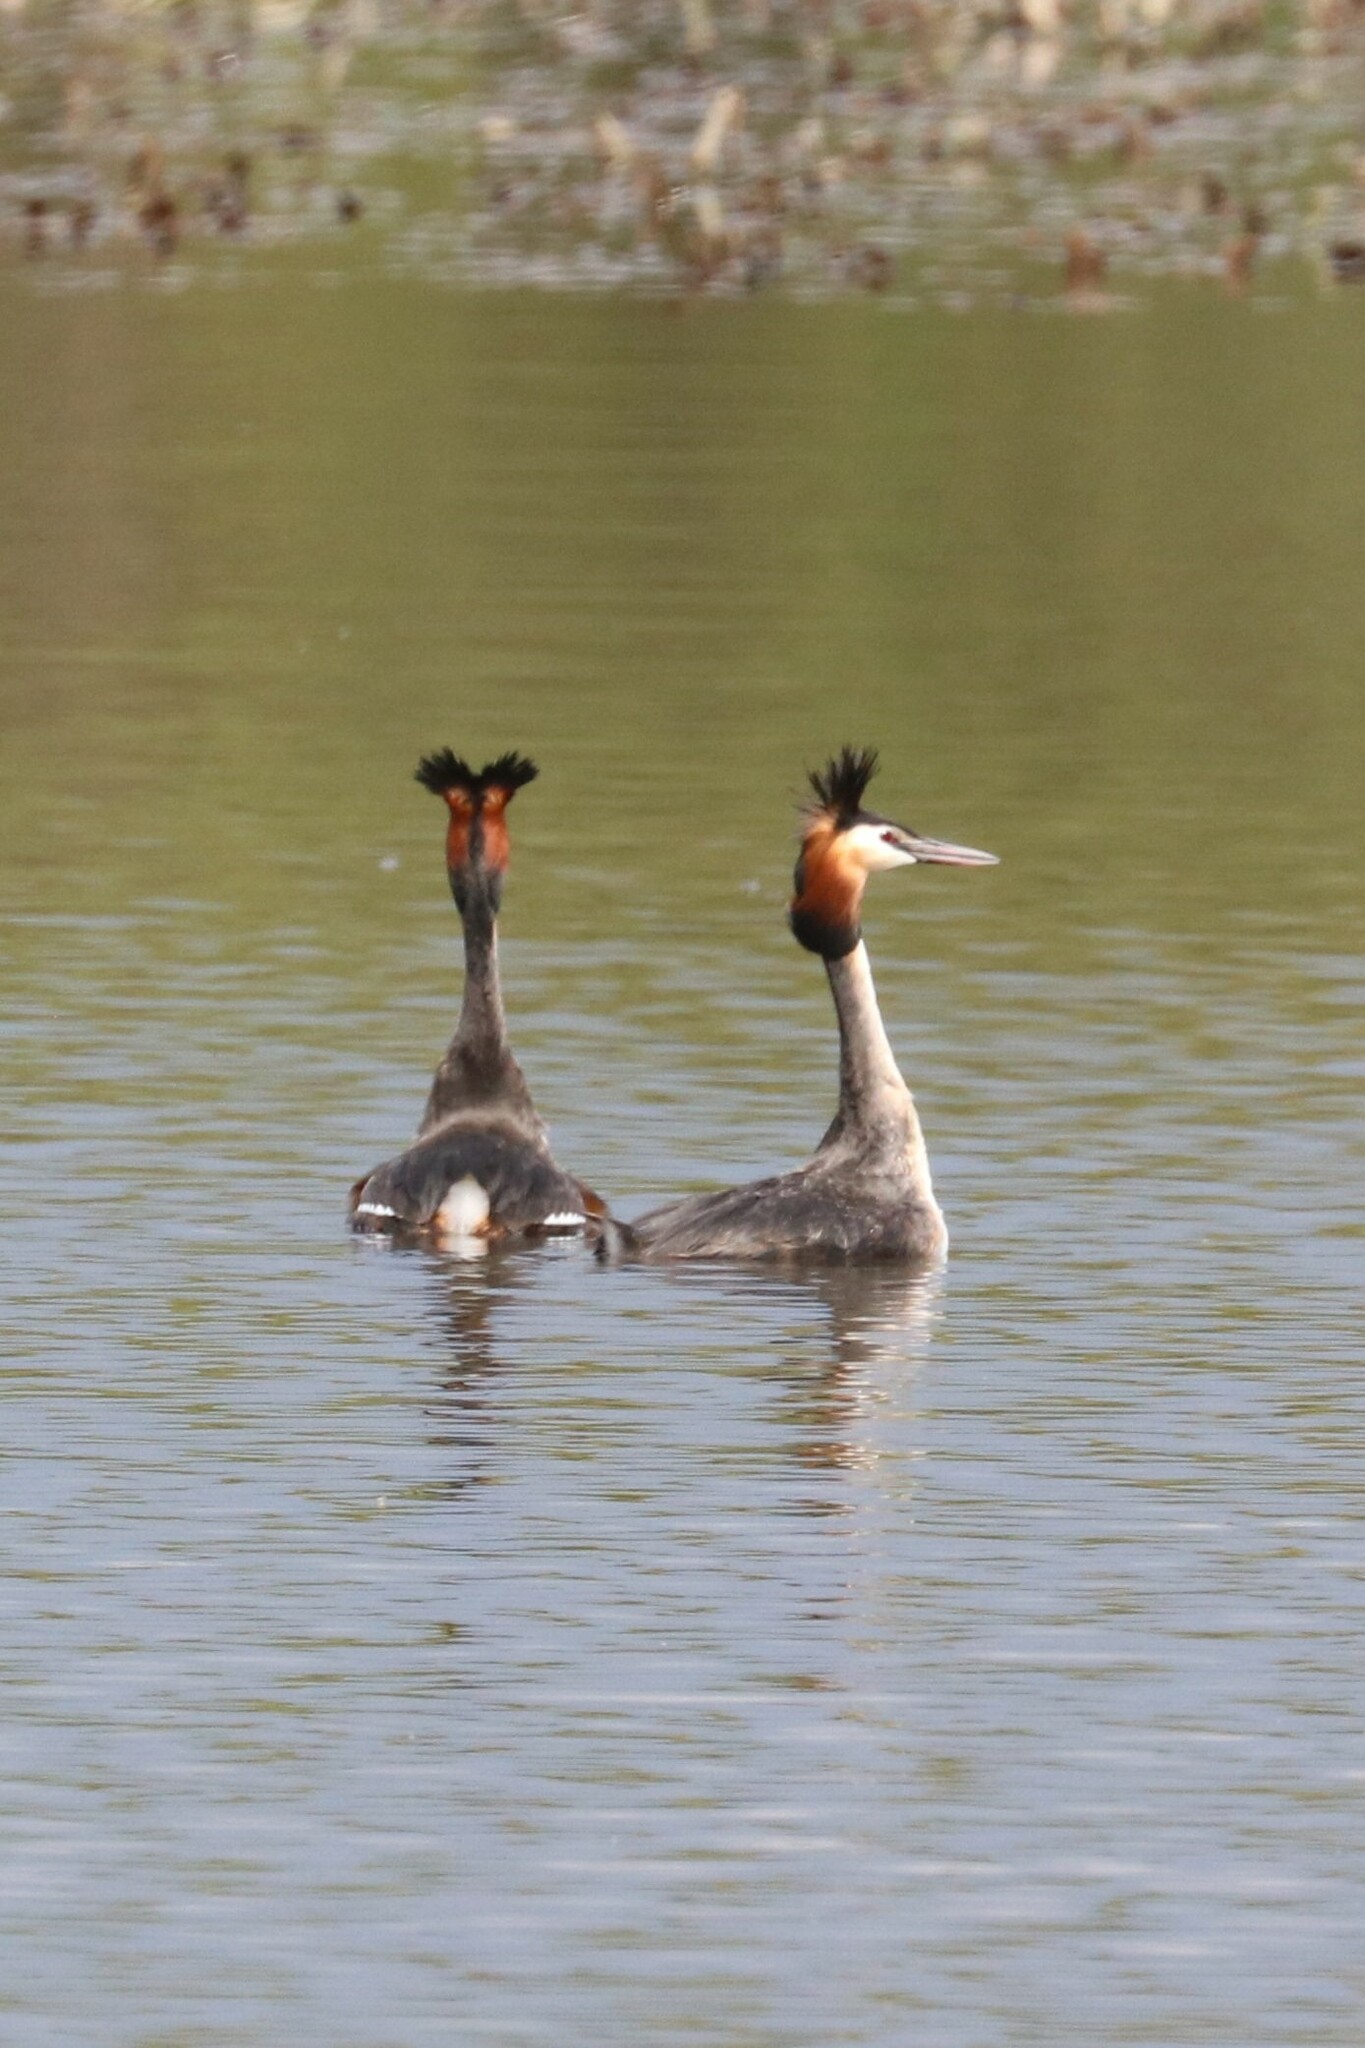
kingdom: Animalia
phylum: Chordata
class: Aves
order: Podicipediformes
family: Podicipedidae
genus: Podiceps
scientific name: Podiceps cristatus
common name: Great crested grebe
